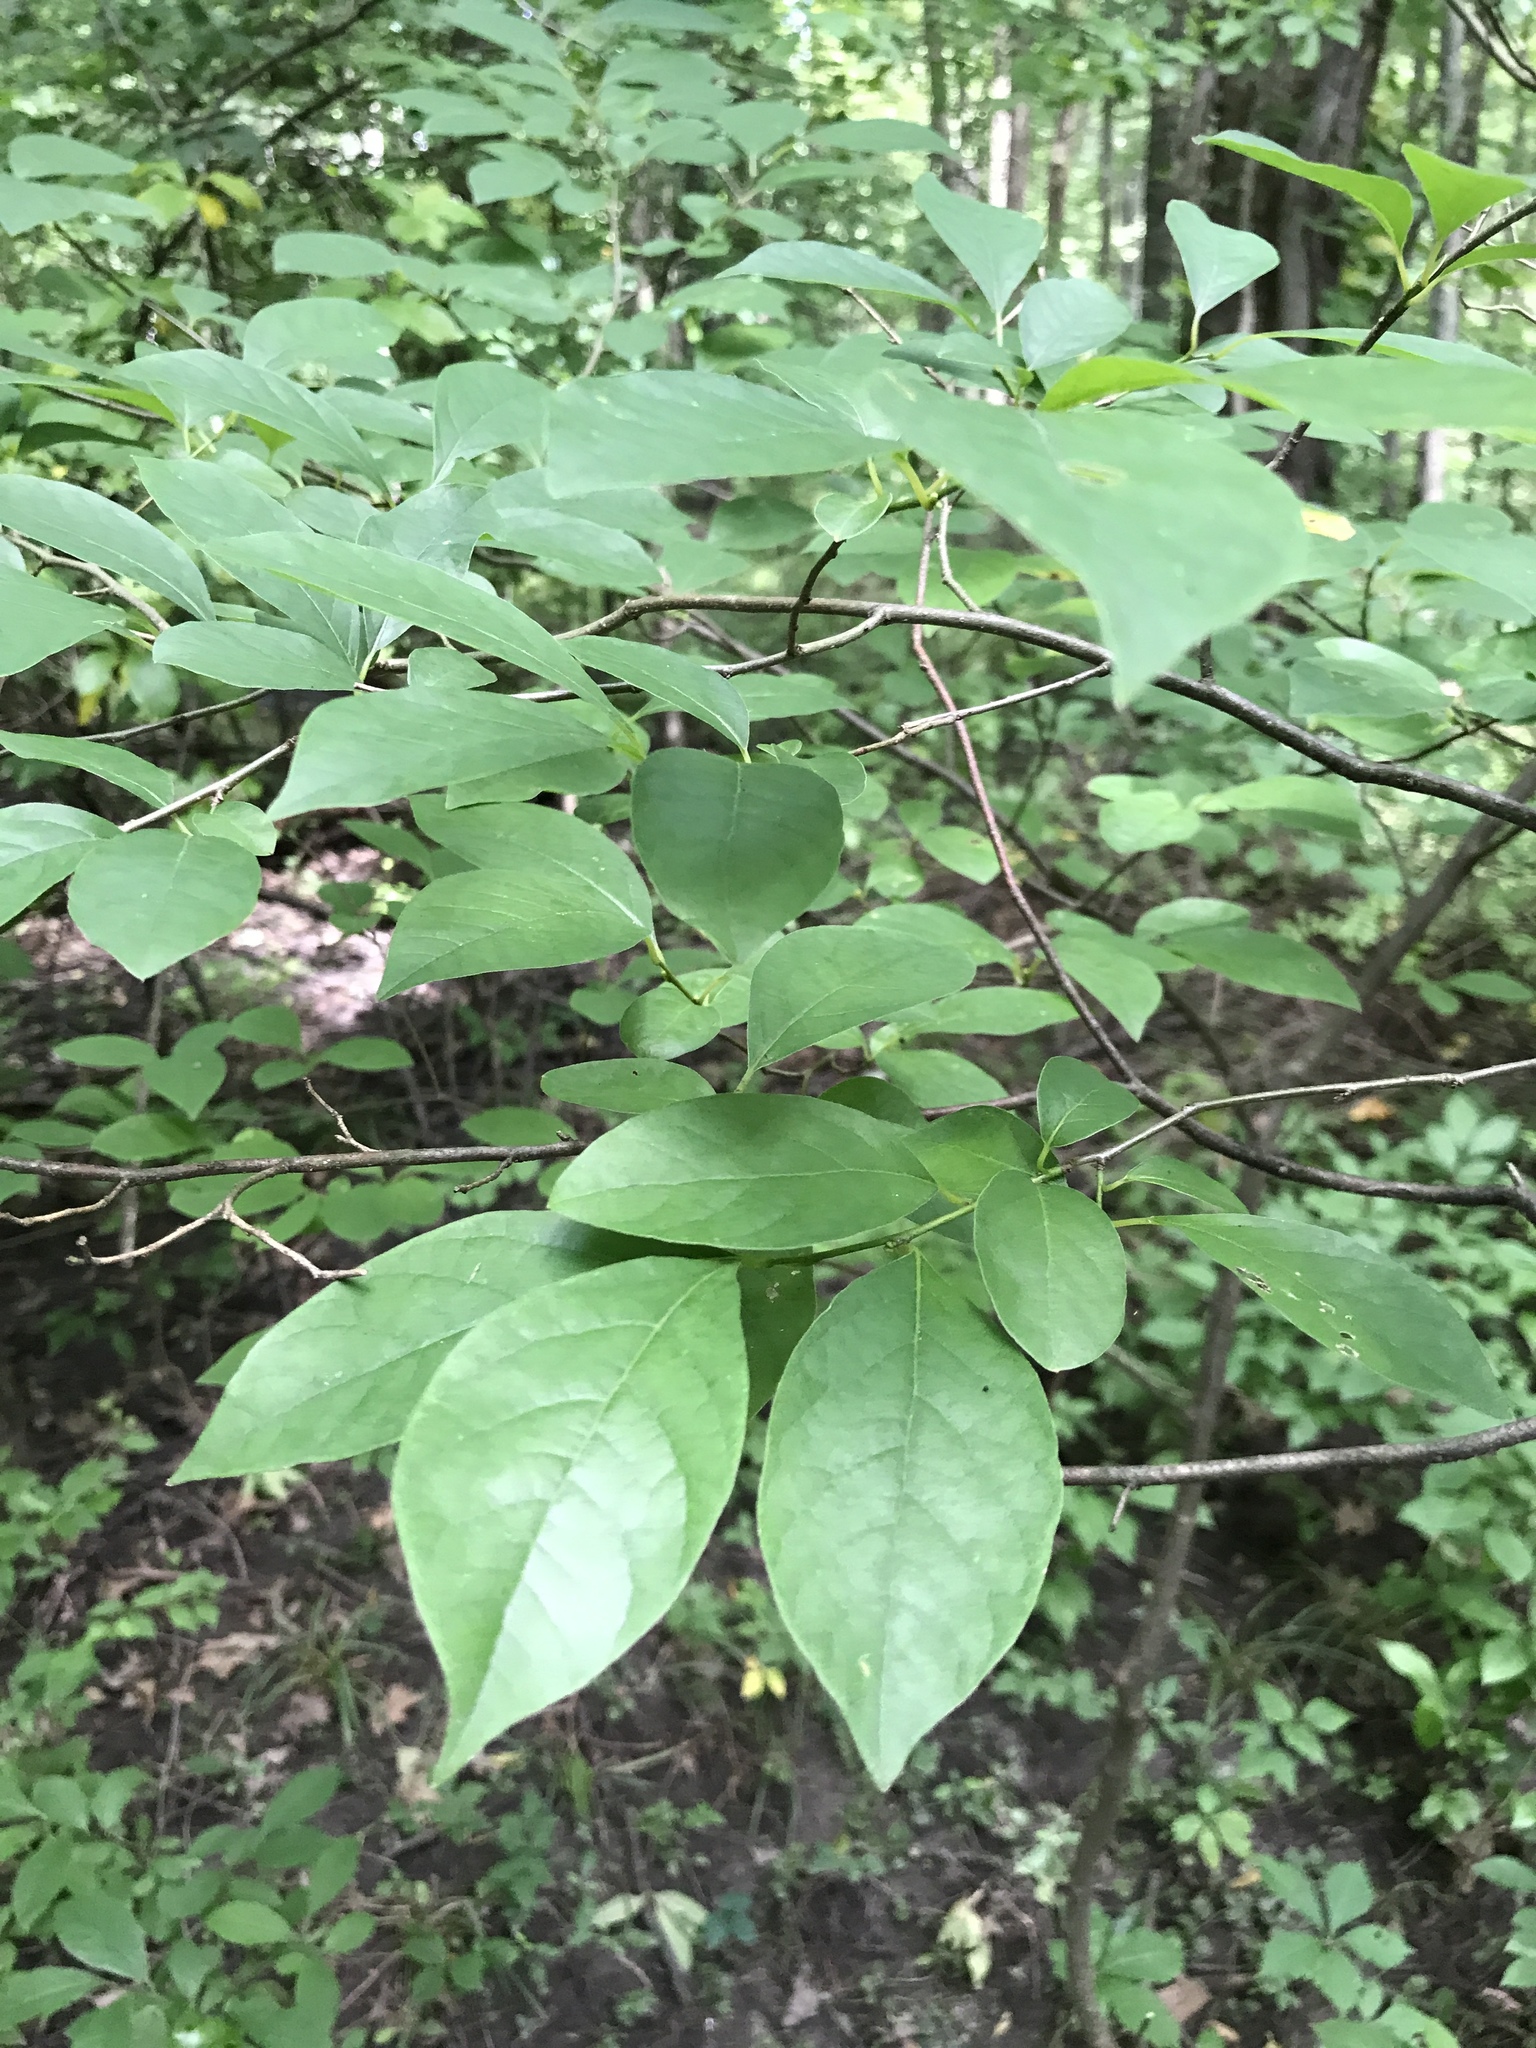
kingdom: Plantae
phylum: Tracheophyta
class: Magnoliopsida
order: Laurales
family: Lauraceae
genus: Lindera
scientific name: Lindera benzoin
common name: Spicebush
